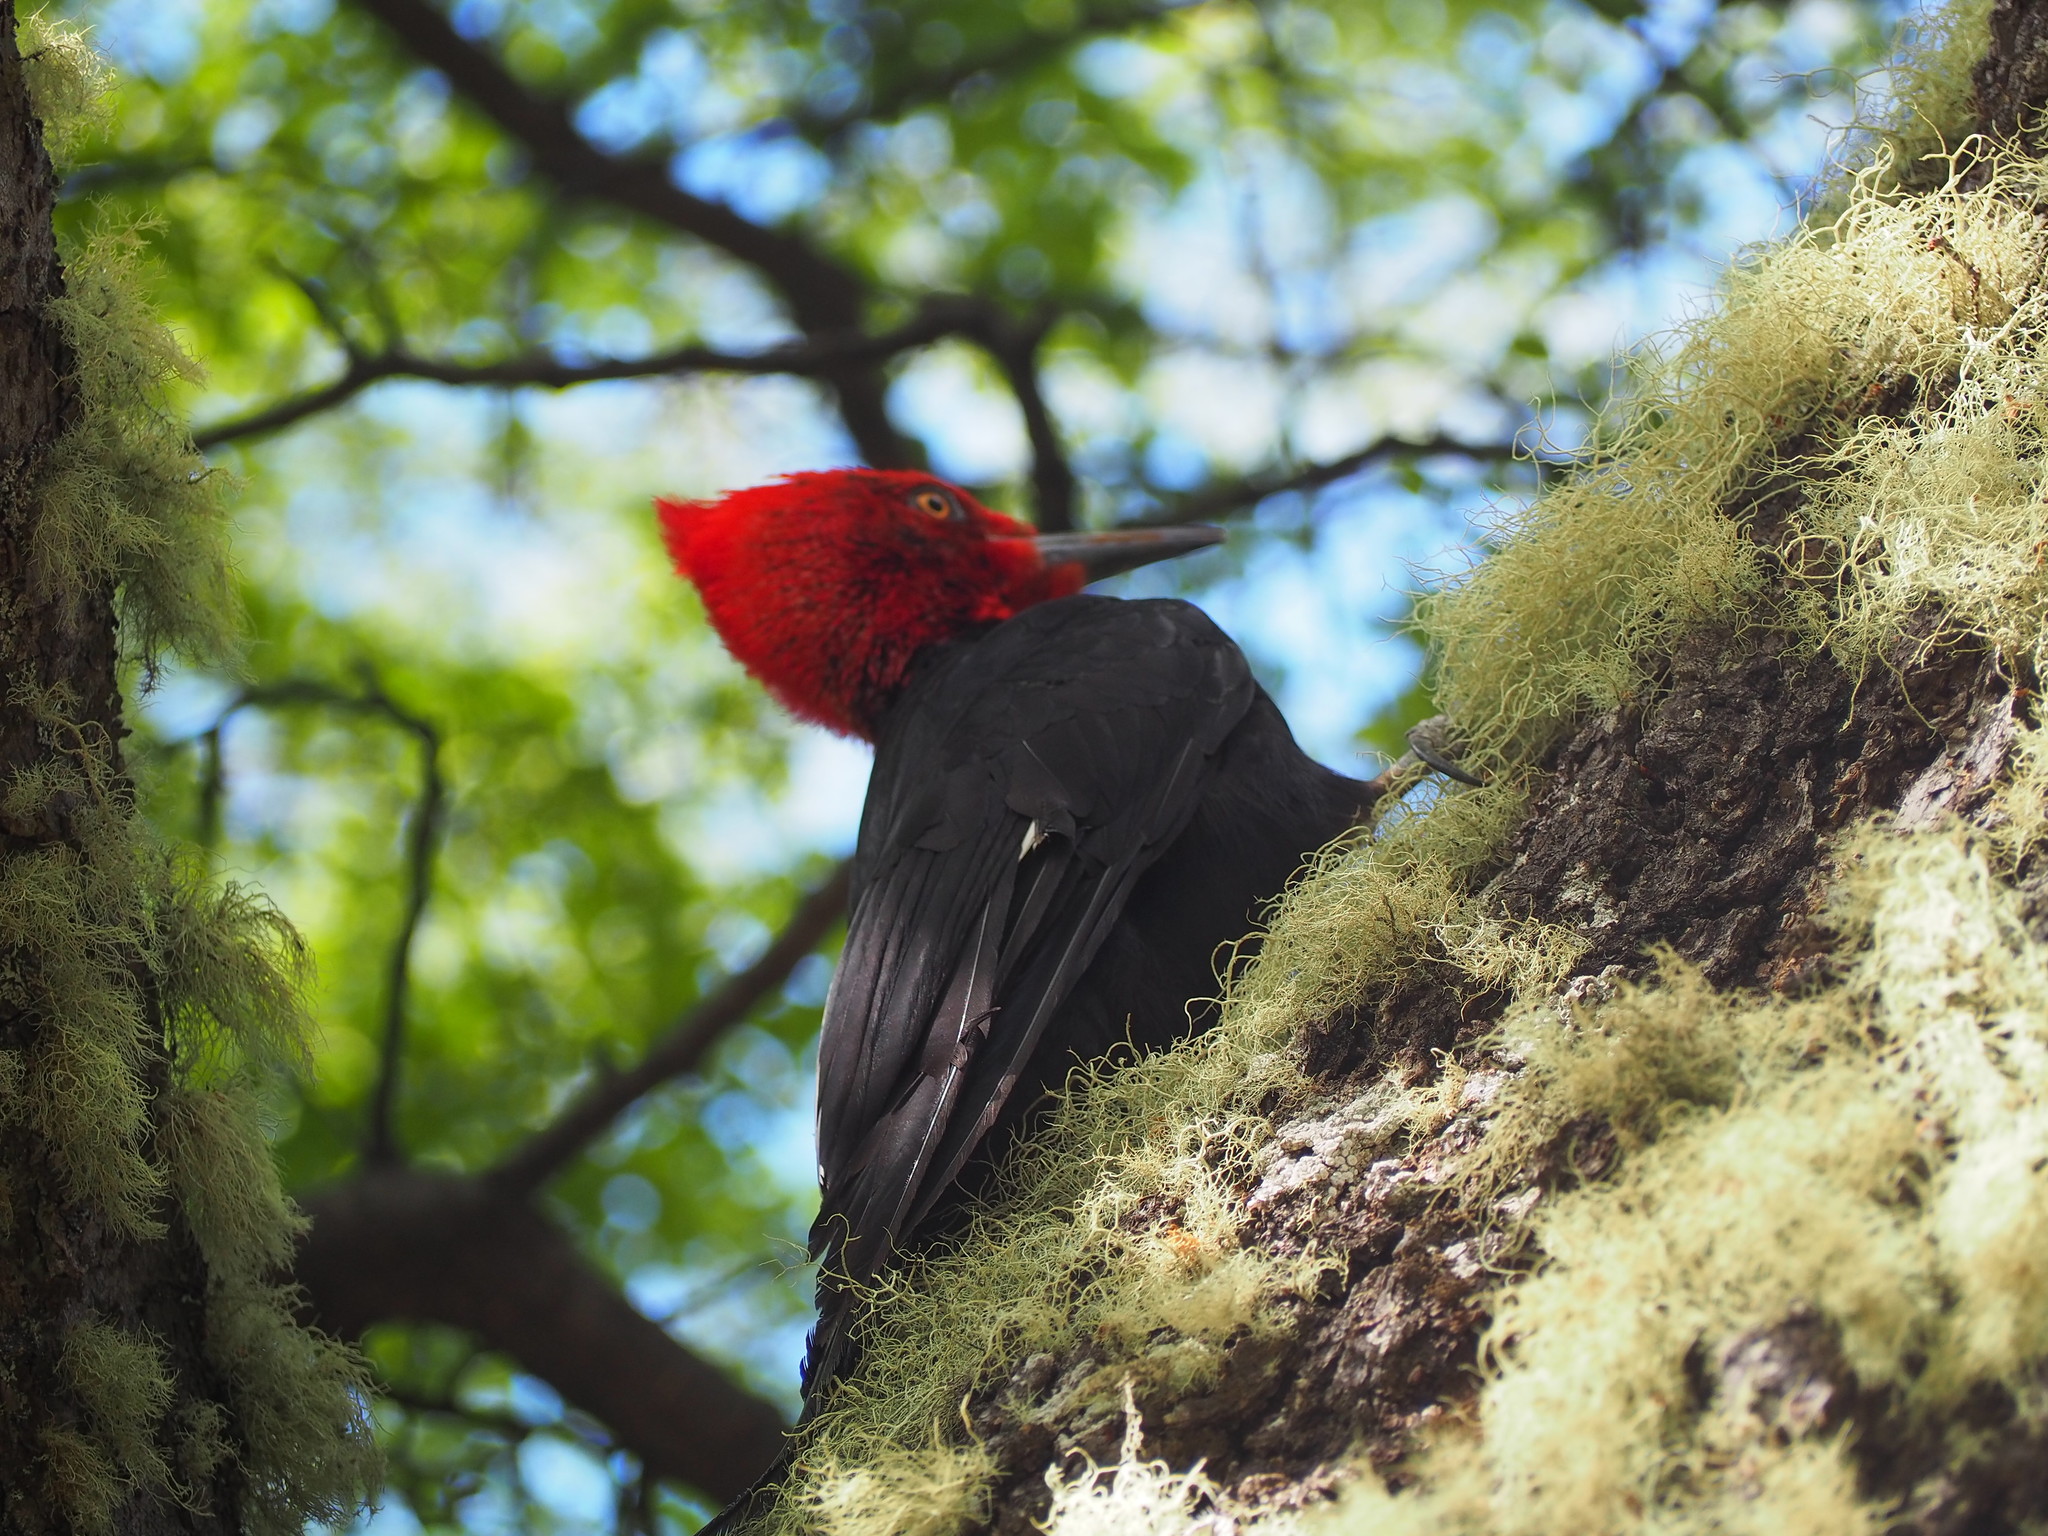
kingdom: Animalia
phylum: Chordata
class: Aves
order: Piciformes
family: Picidae
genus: Campephilus
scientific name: Campephilus magellanicus
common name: Magellanic woodpecker
